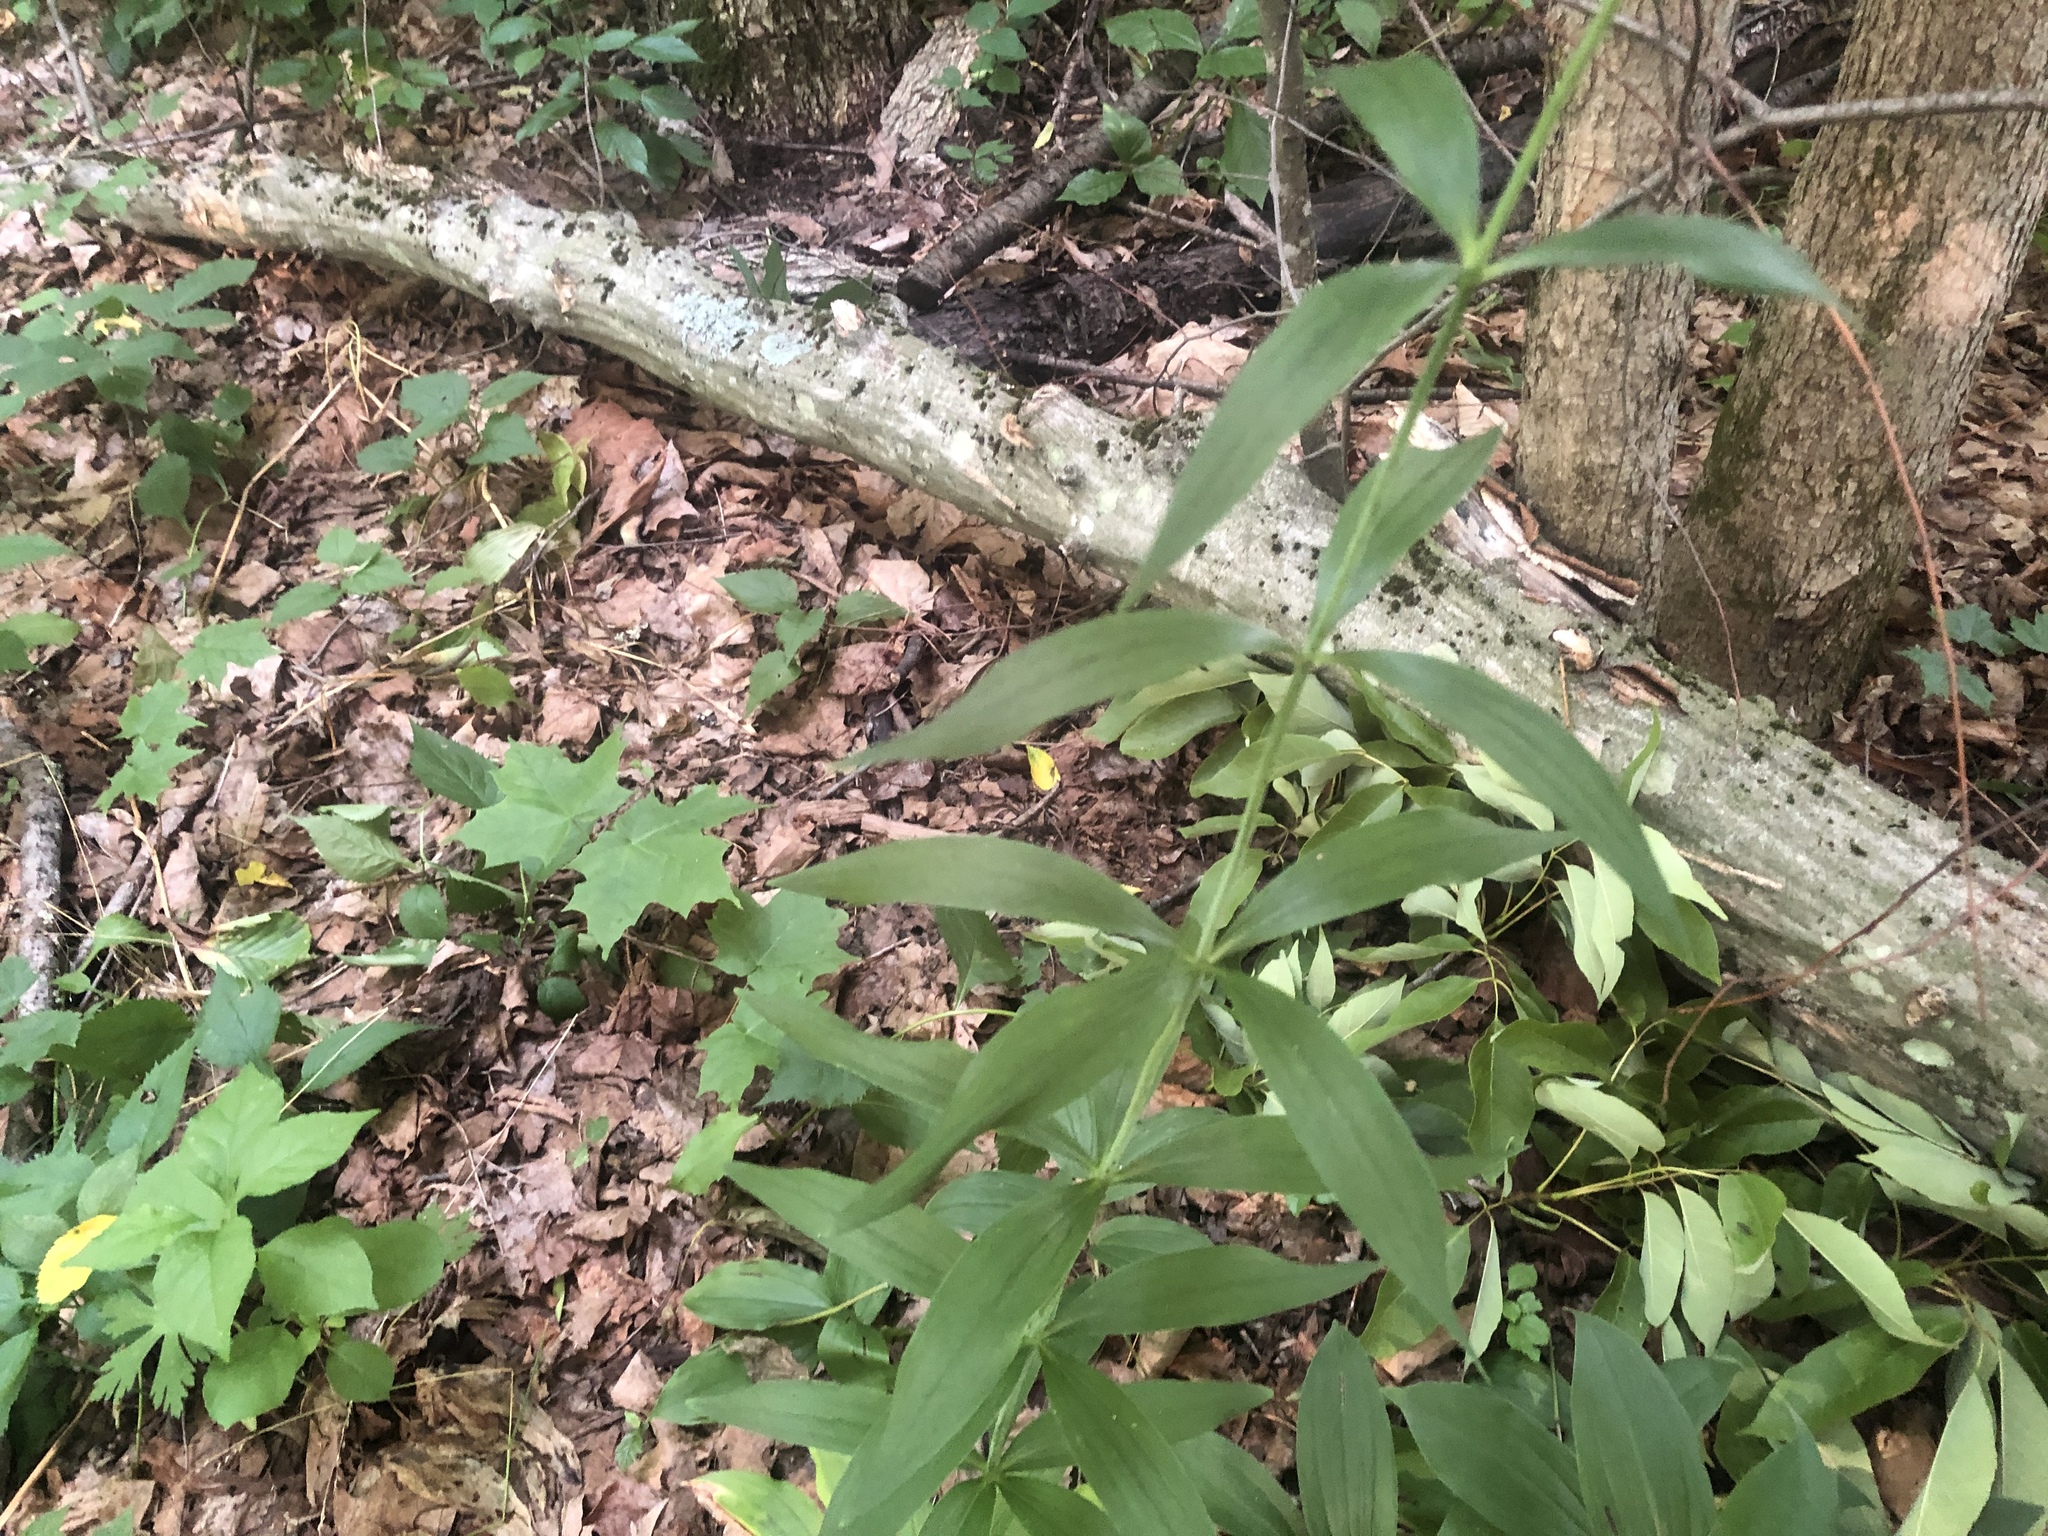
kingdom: Plantae
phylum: Tracheophyta
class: Liliopsida
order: Liliales
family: Liliaceae
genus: Lilium
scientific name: Lilium canadense
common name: Canada lily
